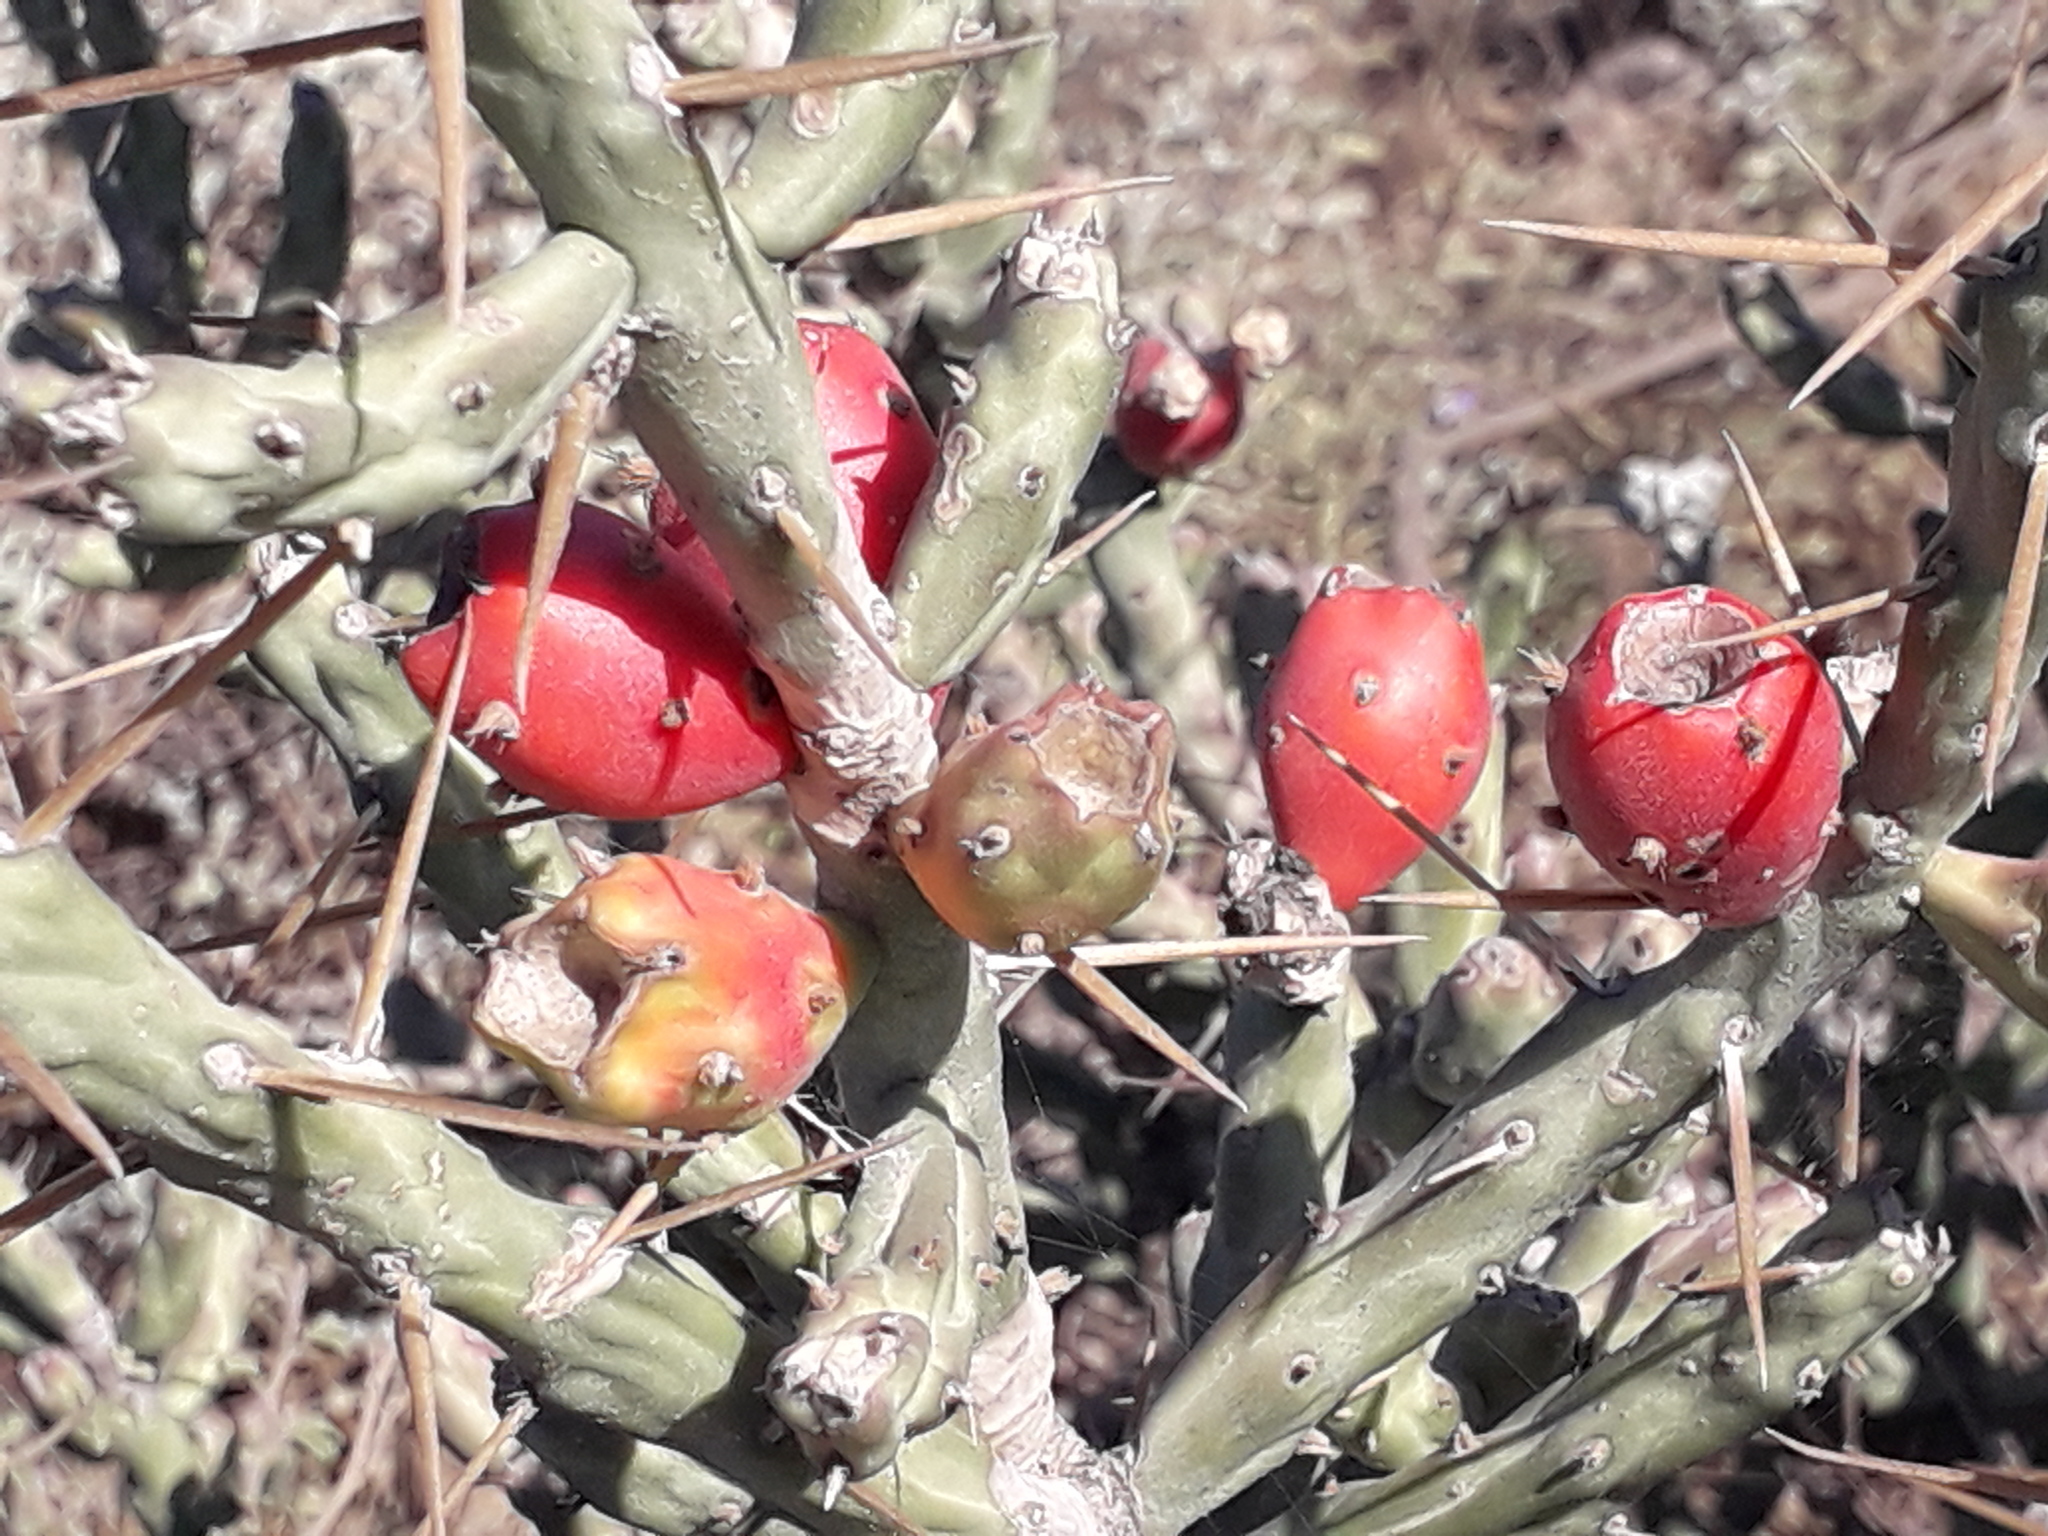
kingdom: Plantae
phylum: Tracheophyta
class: Magnoliopsida
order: Caryophyllales
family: Cactaceae
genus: Cylindropuntia
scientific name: Cylindropuntia leptocaulis
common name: Christmas cactus
